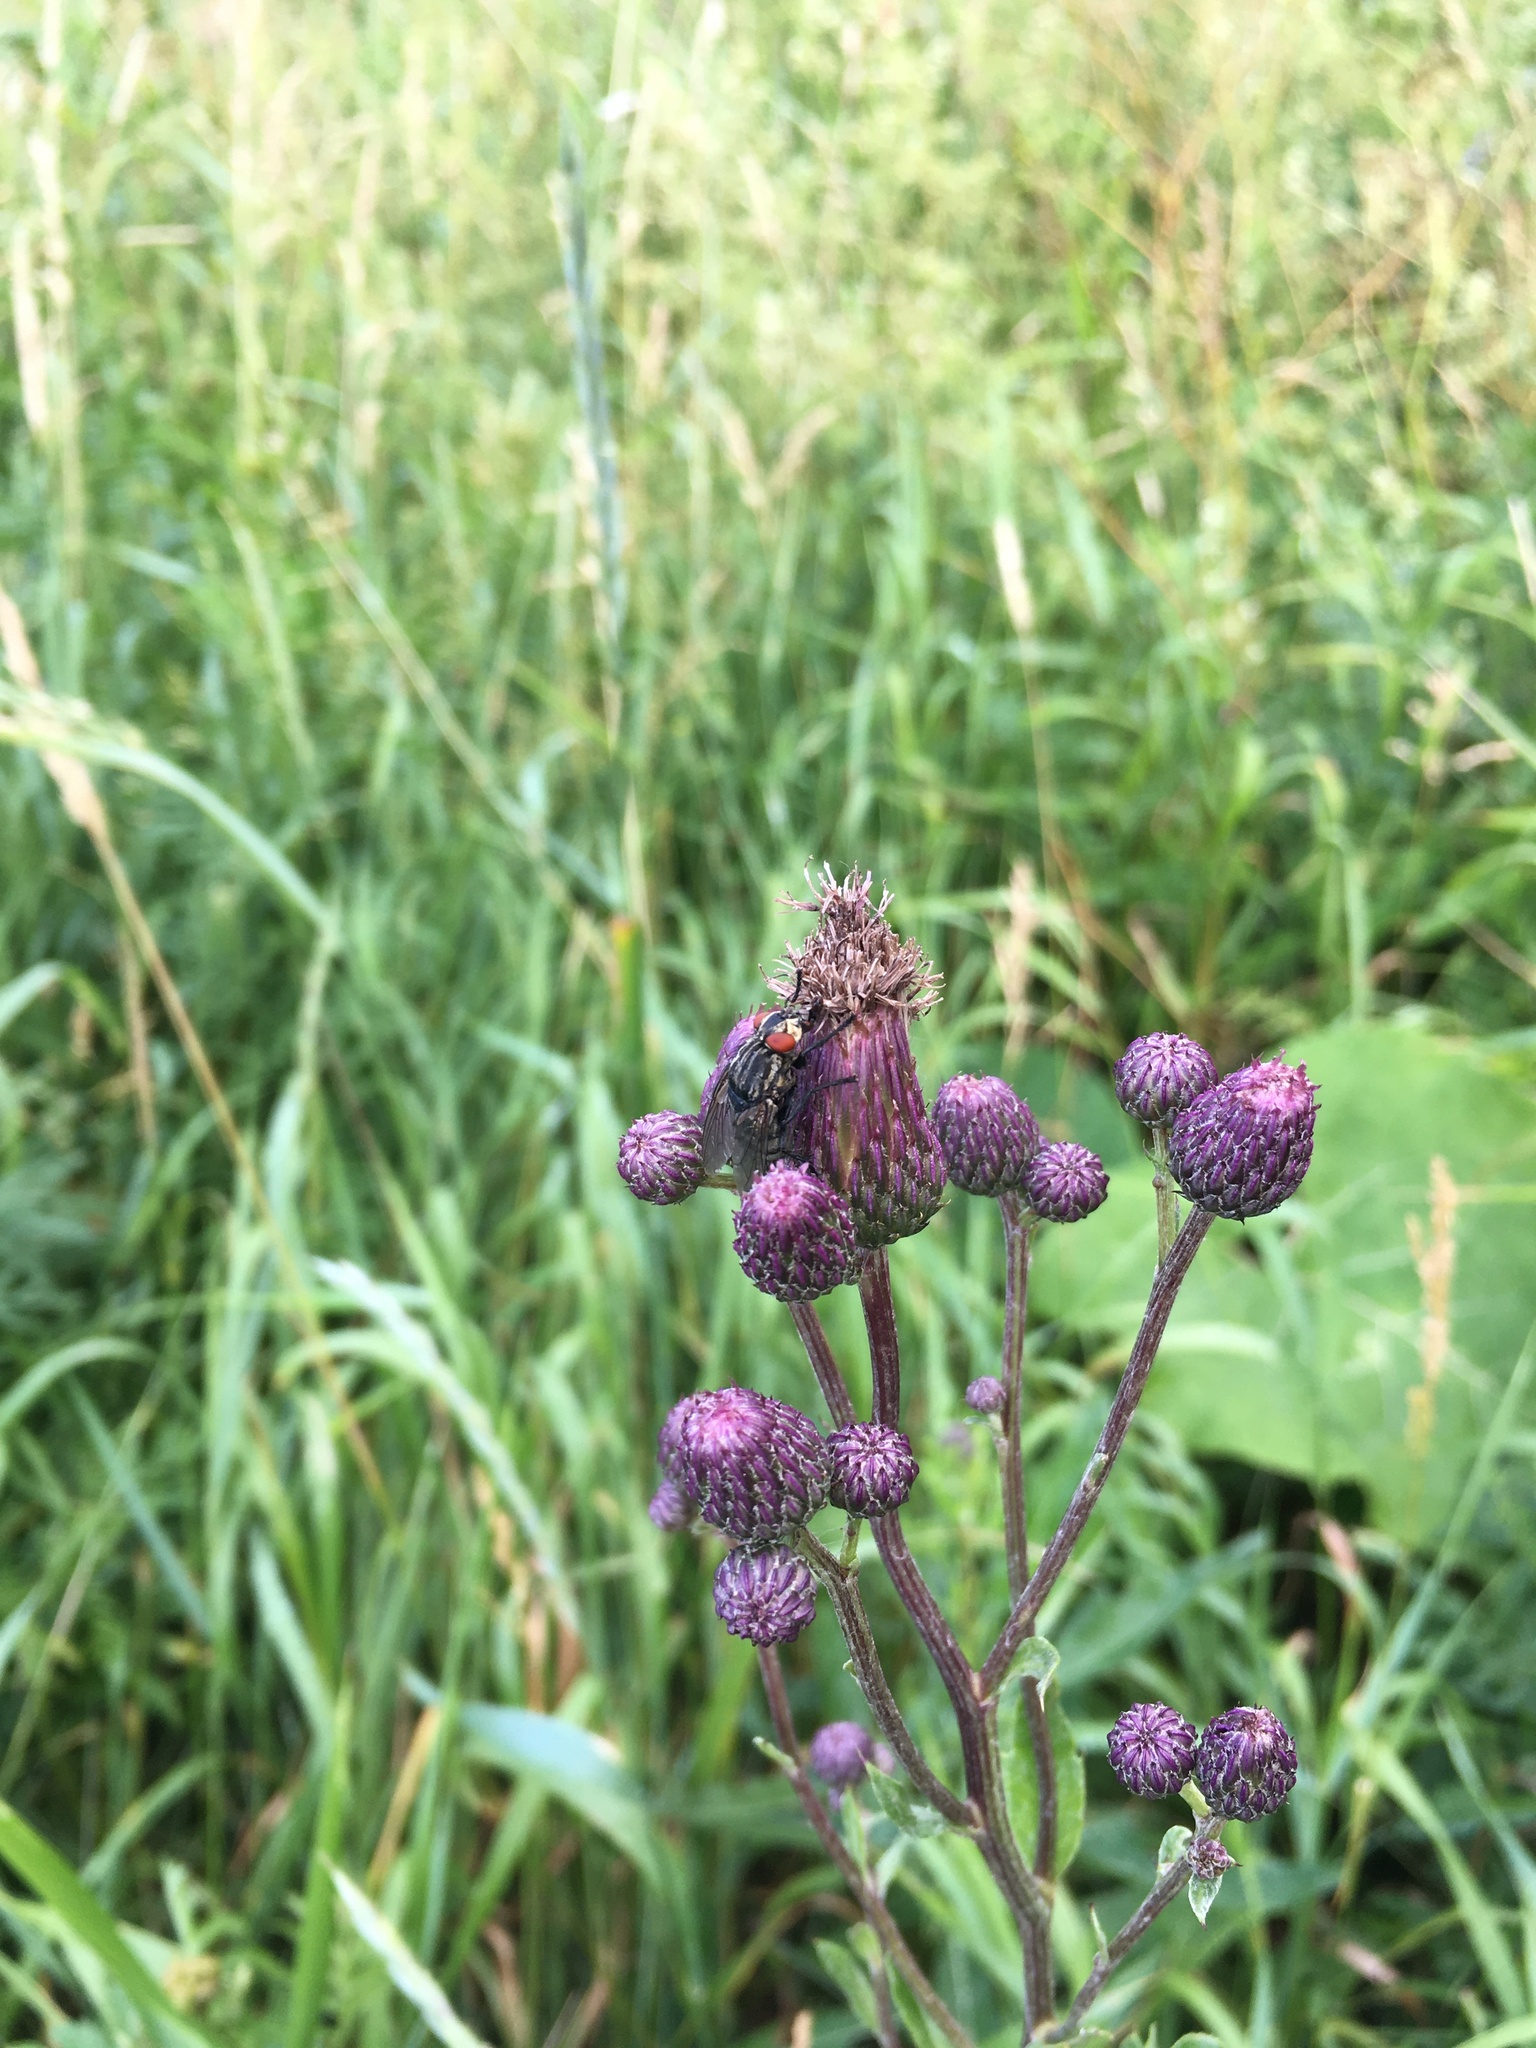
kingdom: Plantae
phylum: Tracheophyta
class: Magnoliopsida
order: Asterales
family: Asteraceae
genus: Cirsium
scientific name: Cirsium arvense
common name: Creeping thistle
